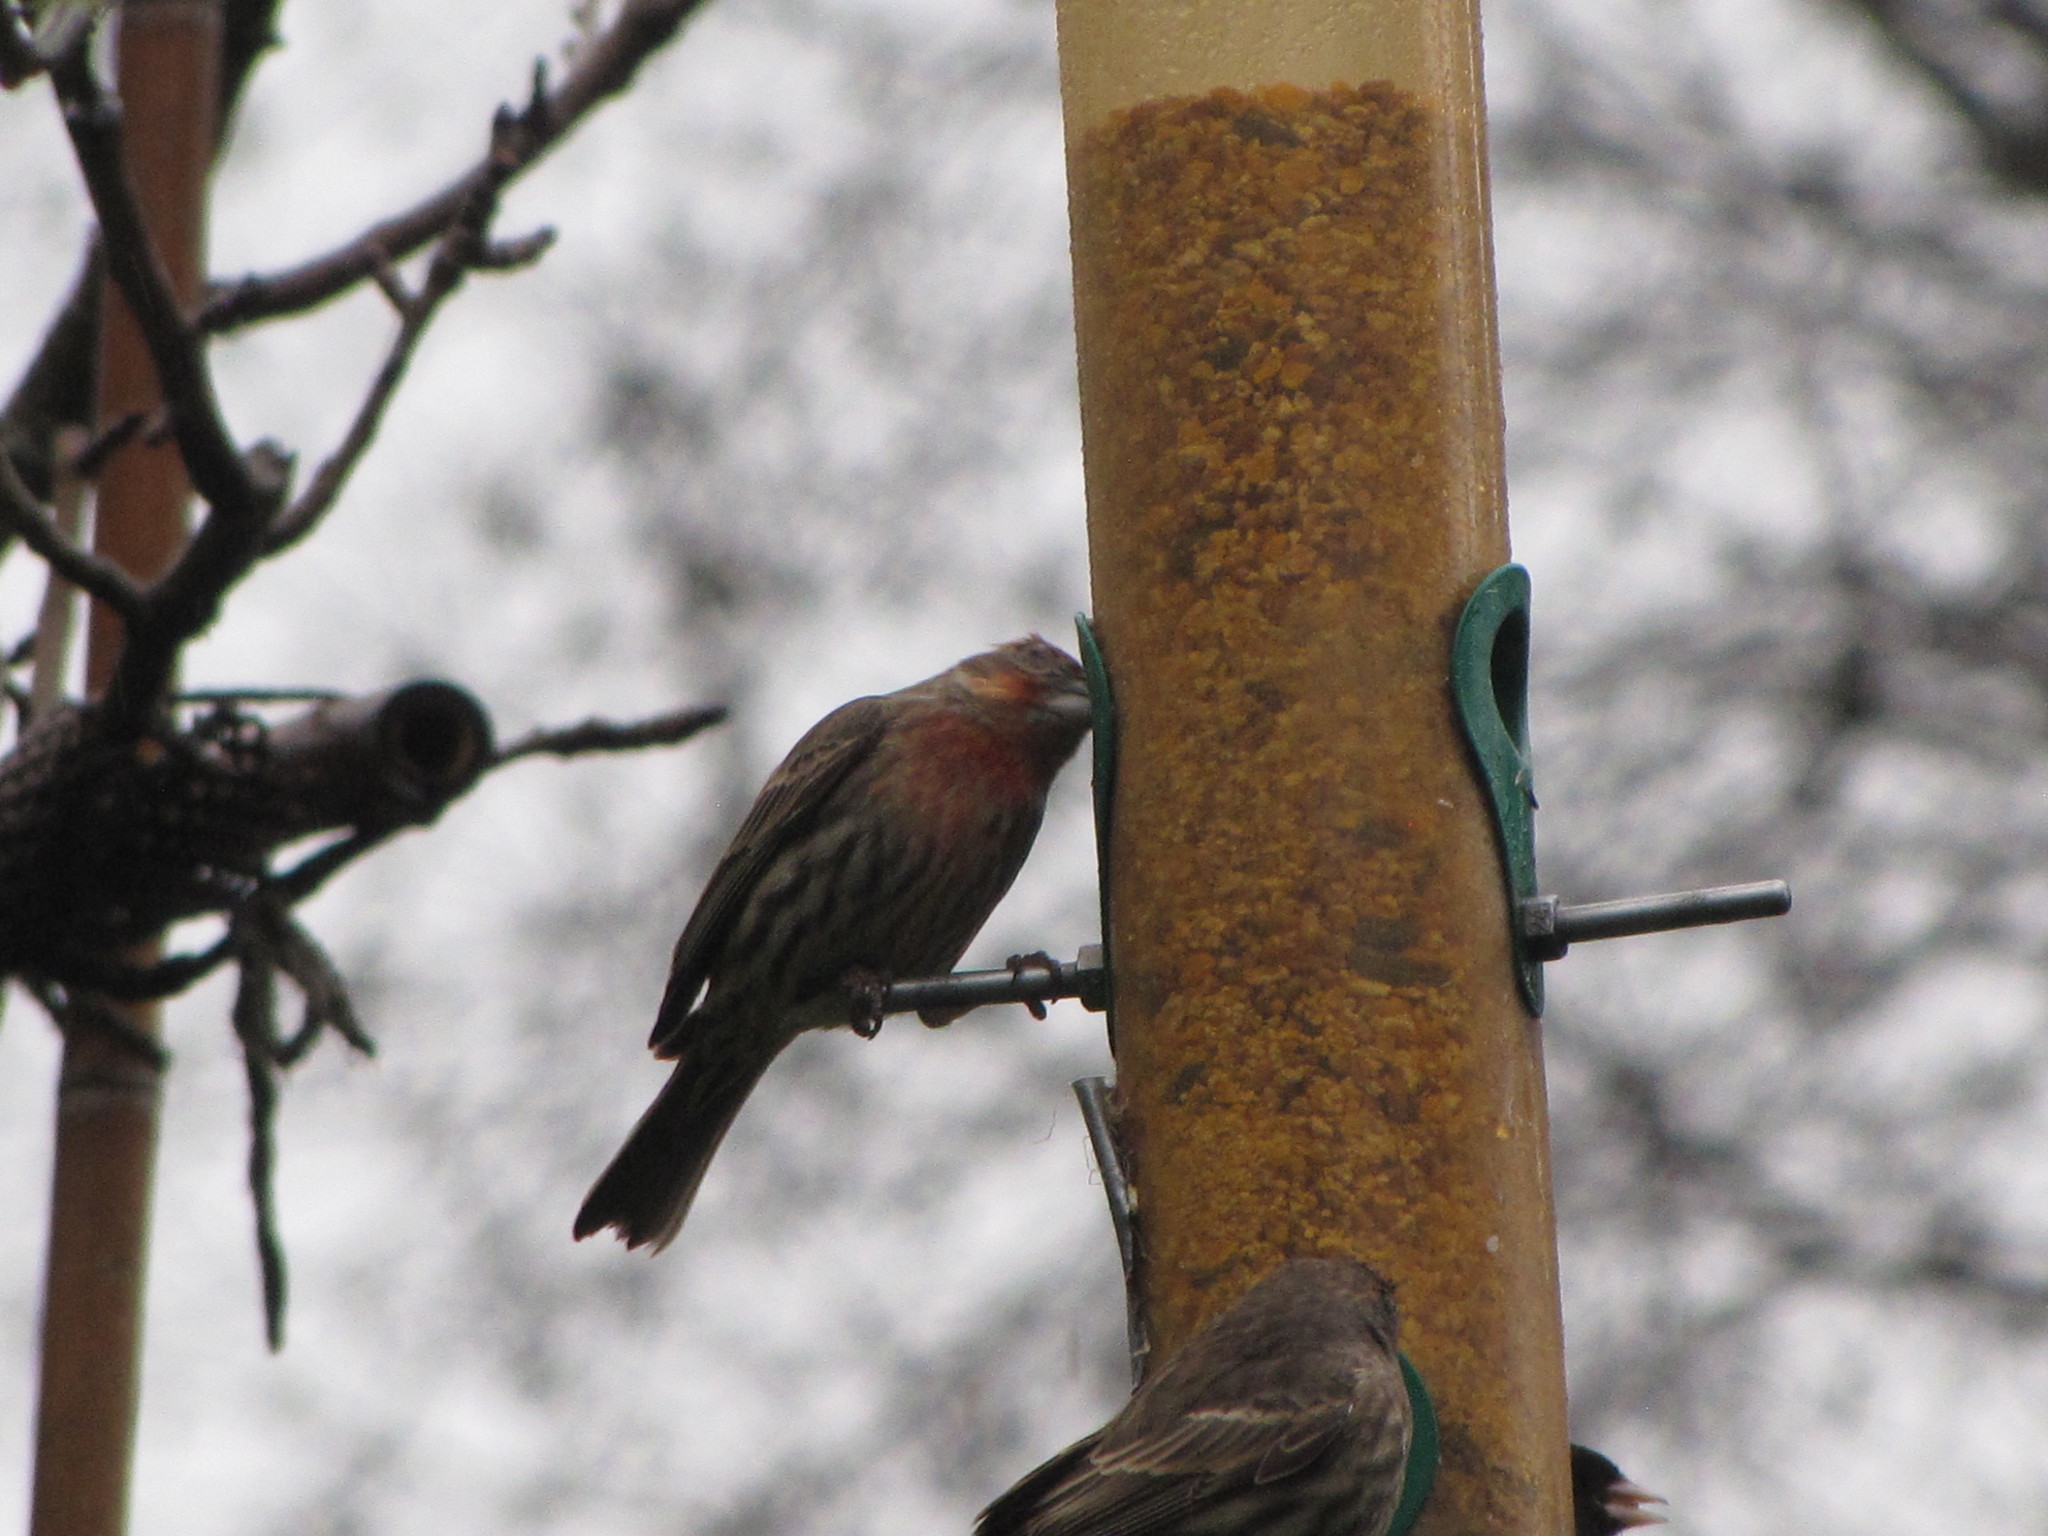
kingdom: Animalia
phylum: Chordata
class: Aves
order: Passeriformes
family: Fringillidae
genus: Haemorhous
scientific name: Haemorhous mexicanus
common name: House finch
